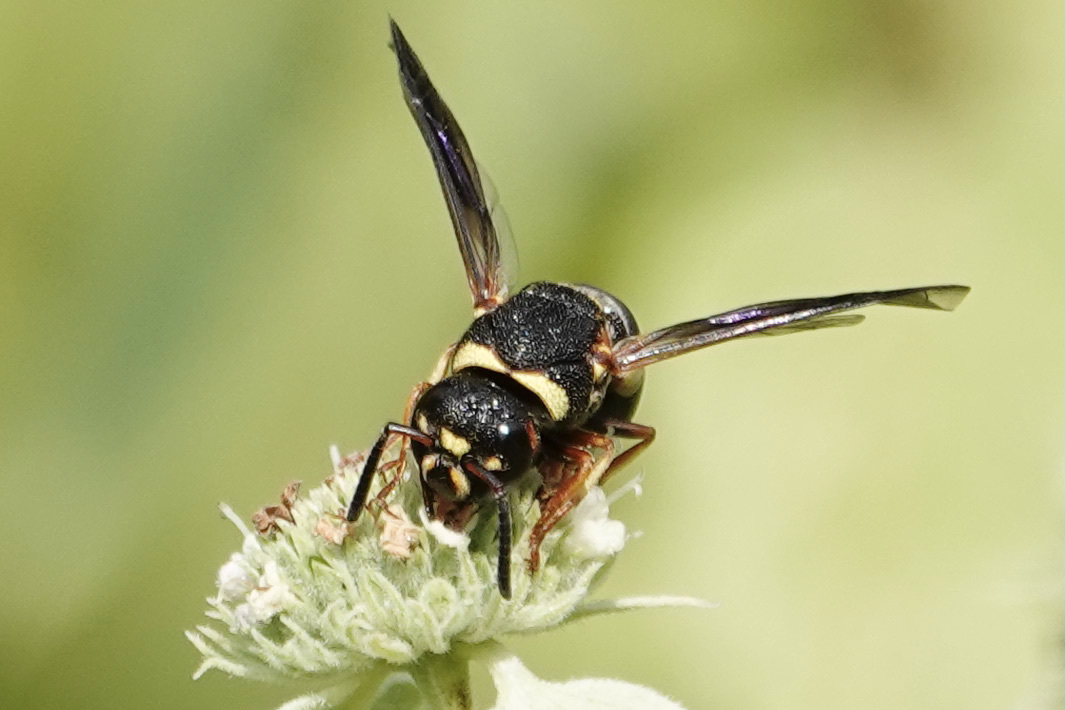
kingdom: Animalia
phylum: Arthropoda
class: Insecta
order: Hymenoptera
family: Eumenidae
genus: Euodynerus
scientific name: Euodynerus hidalgo
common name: Wasp
